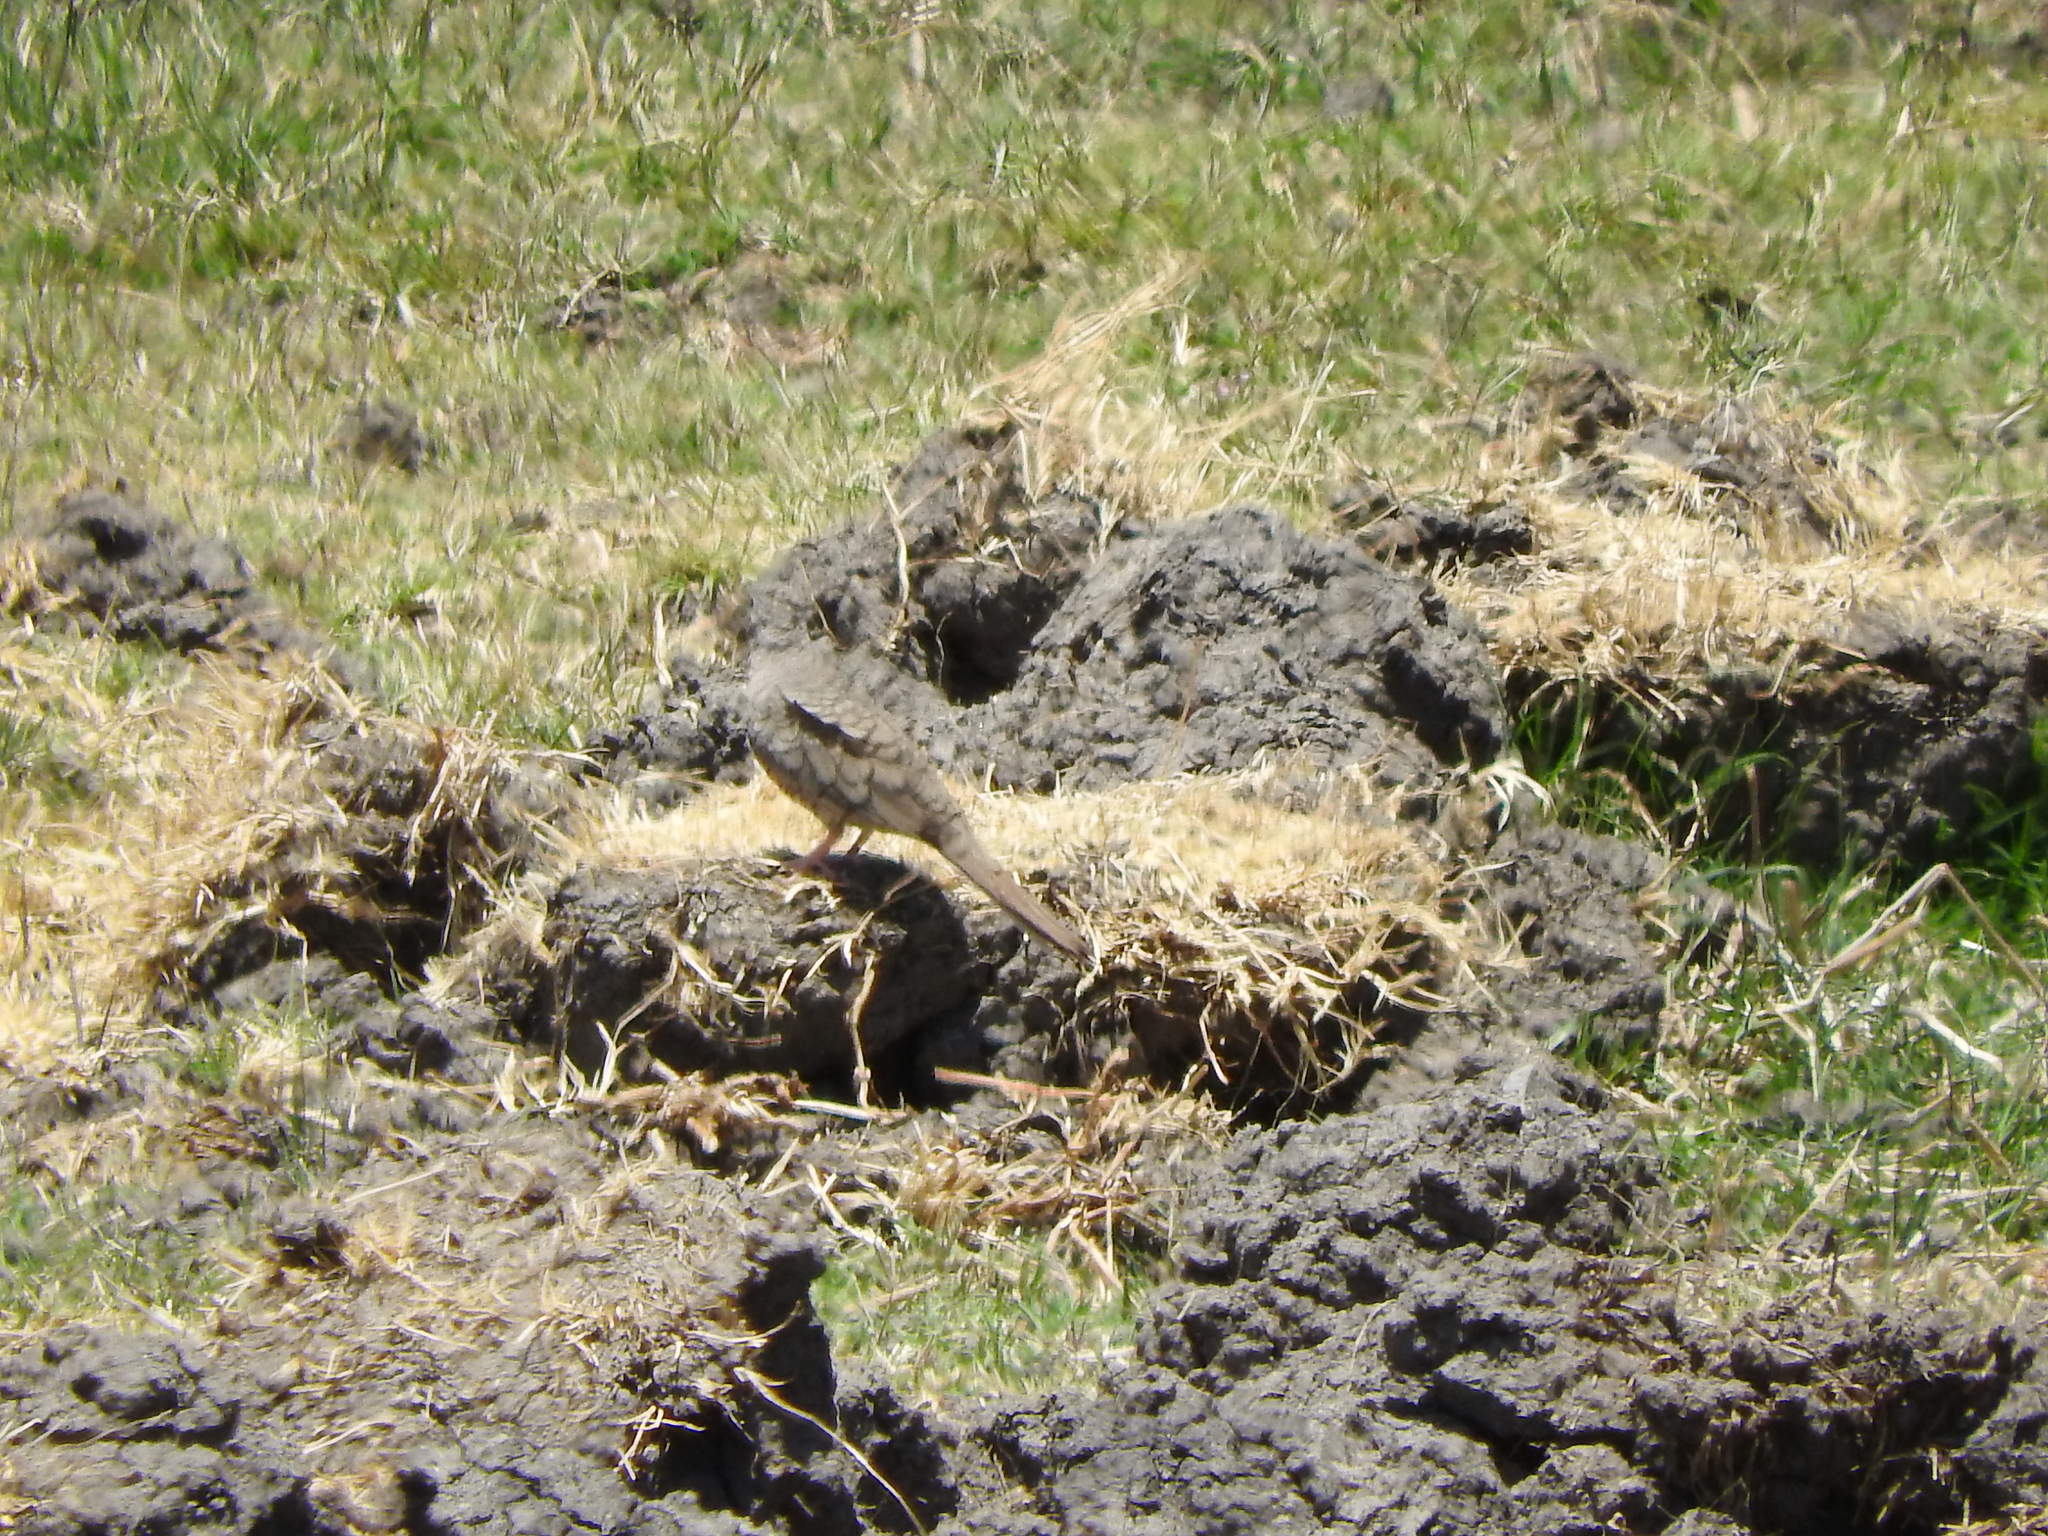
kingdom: Animalia
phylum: Chordata
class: Aves
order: Columbiformes
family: Columbidae
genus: Columbina
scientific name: Columbina inca
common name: Inca dove
